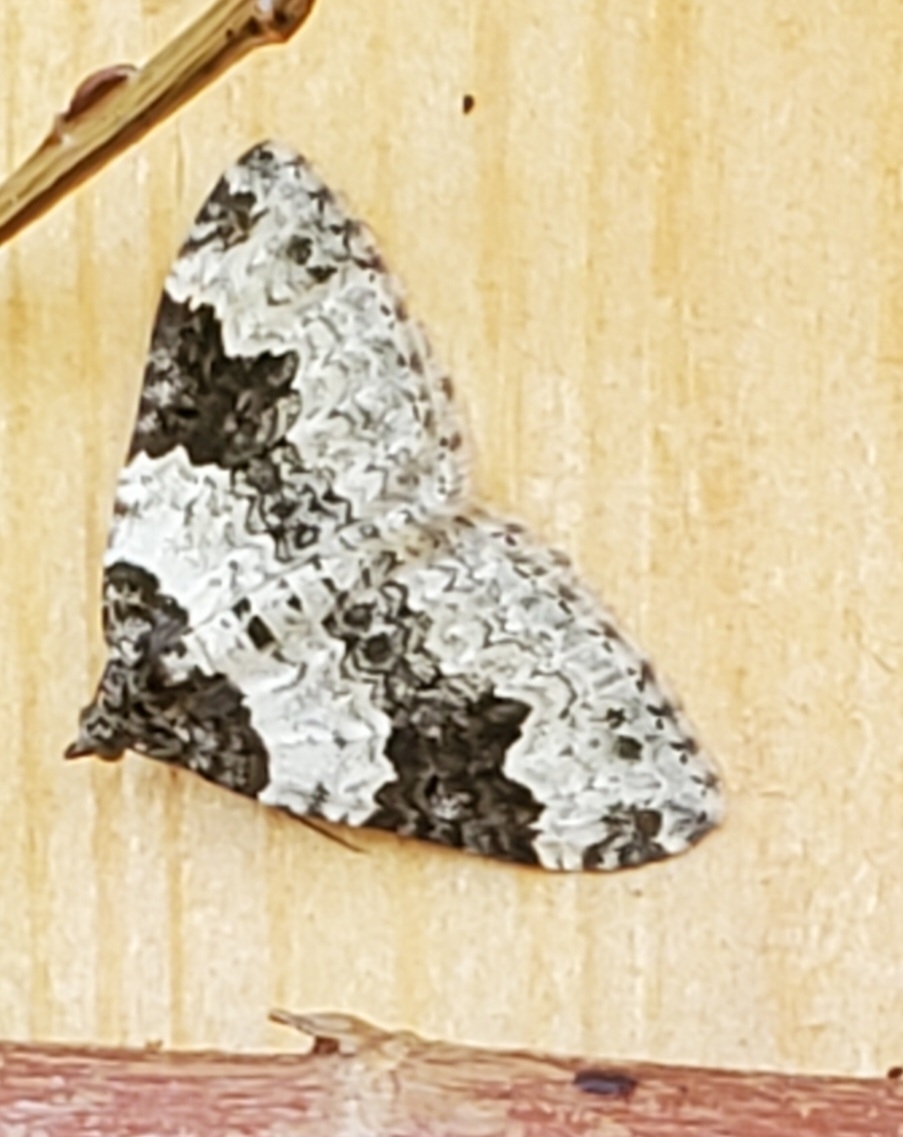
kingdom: Animalia
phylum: Arthropoda
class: Insecta
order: Lepidoptera
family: Geometridae
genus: Xanthorhoe
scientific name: Xanthorhoe fluctuata
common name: Garden carpet
